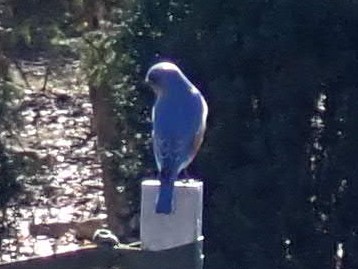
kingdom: Animalia
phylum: Chordata
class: Aves
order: Passeriformes
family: Turdidae
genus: Sialia
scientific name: Sialia sialis
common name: Eastern bluebird
